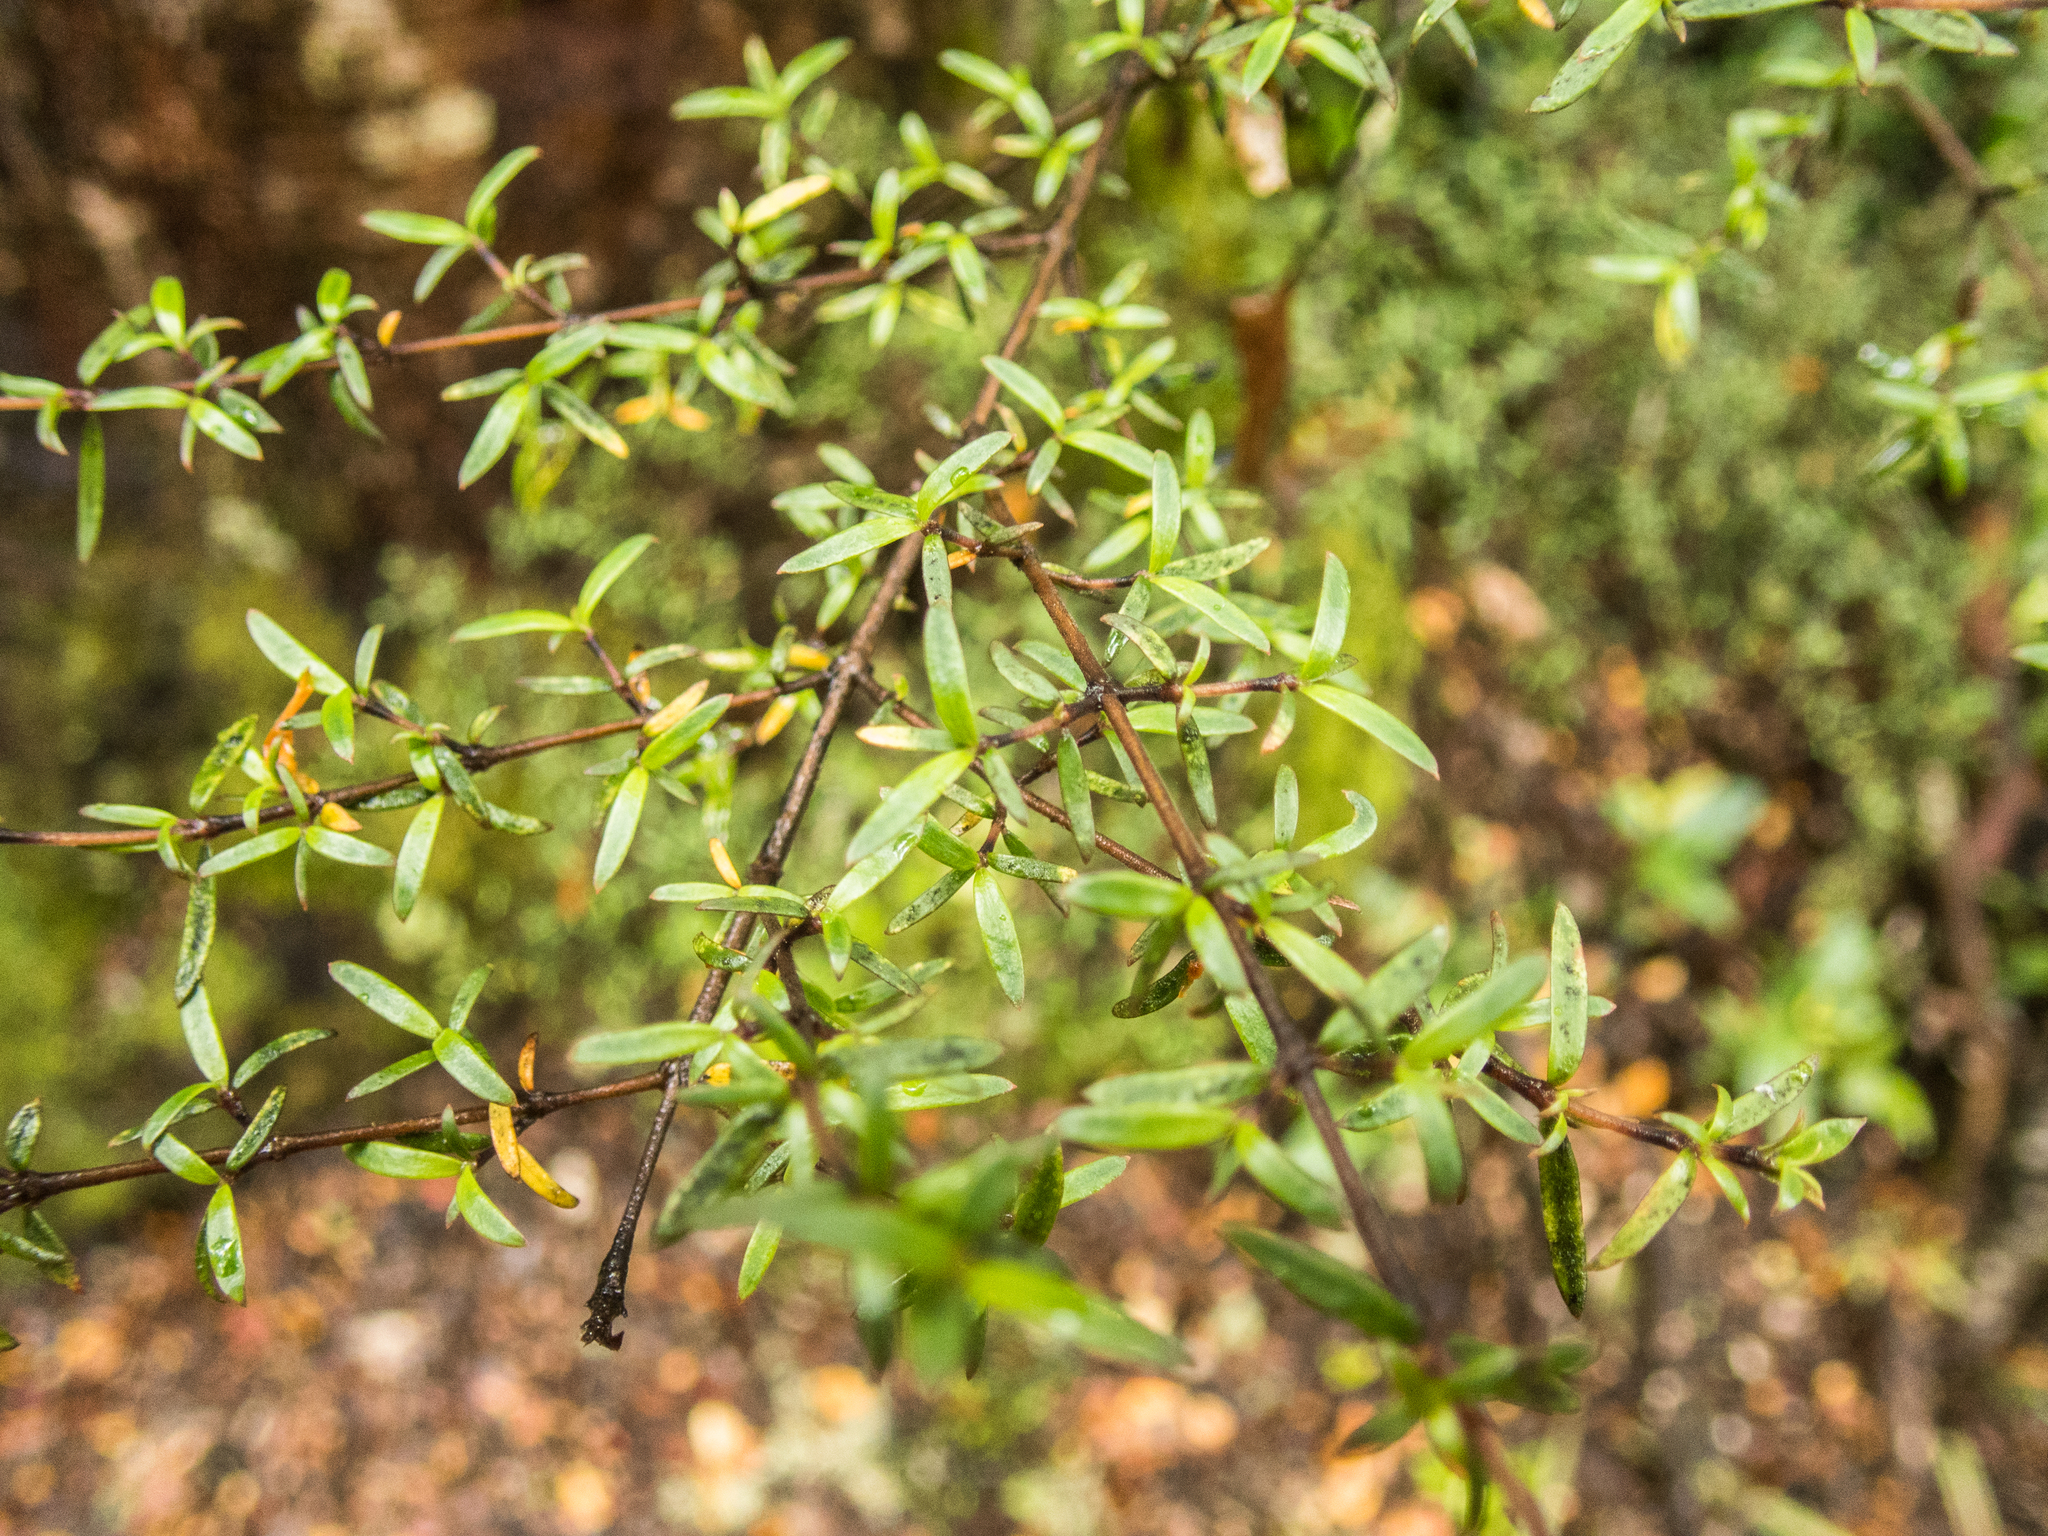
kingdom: Plantae
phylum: Tracheophyta
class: Magnoliopsida
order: Gentianales
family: Rubiaceae
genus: Coprosma
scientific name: Coprosma microcarpa
